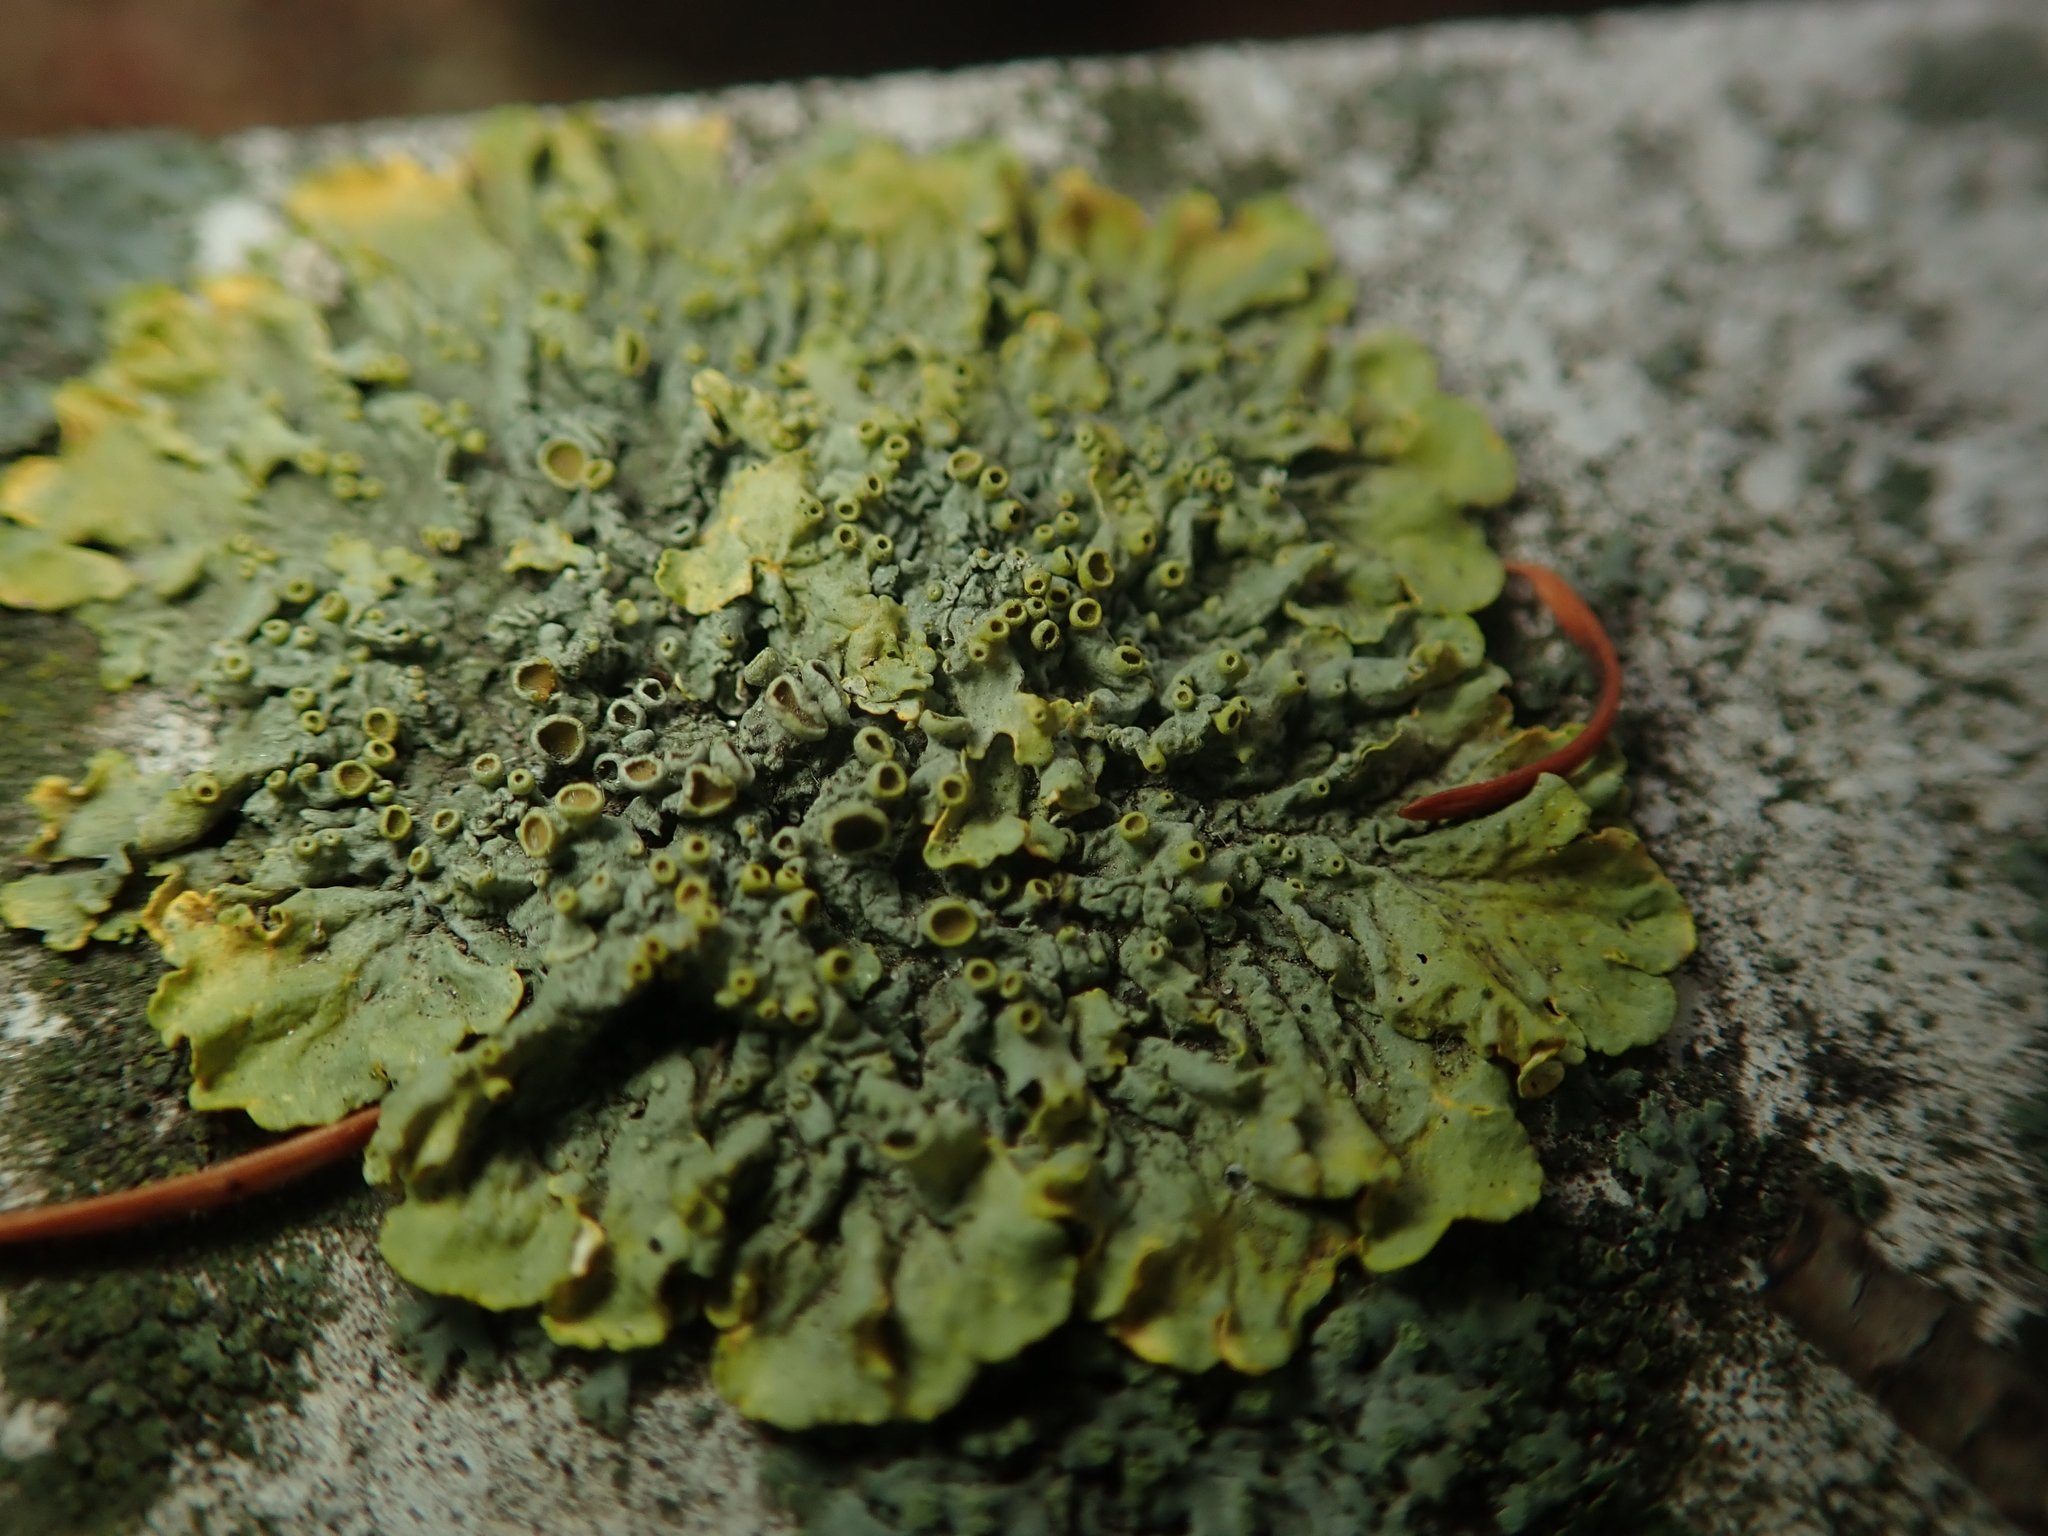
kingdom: Fungi
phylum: Ascomycota
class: Lecanoromycetes
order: Teloschistales
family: Teloschistaceae
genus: Xanthoria
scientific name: Xanthoria parietina
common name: Common orange lichen
